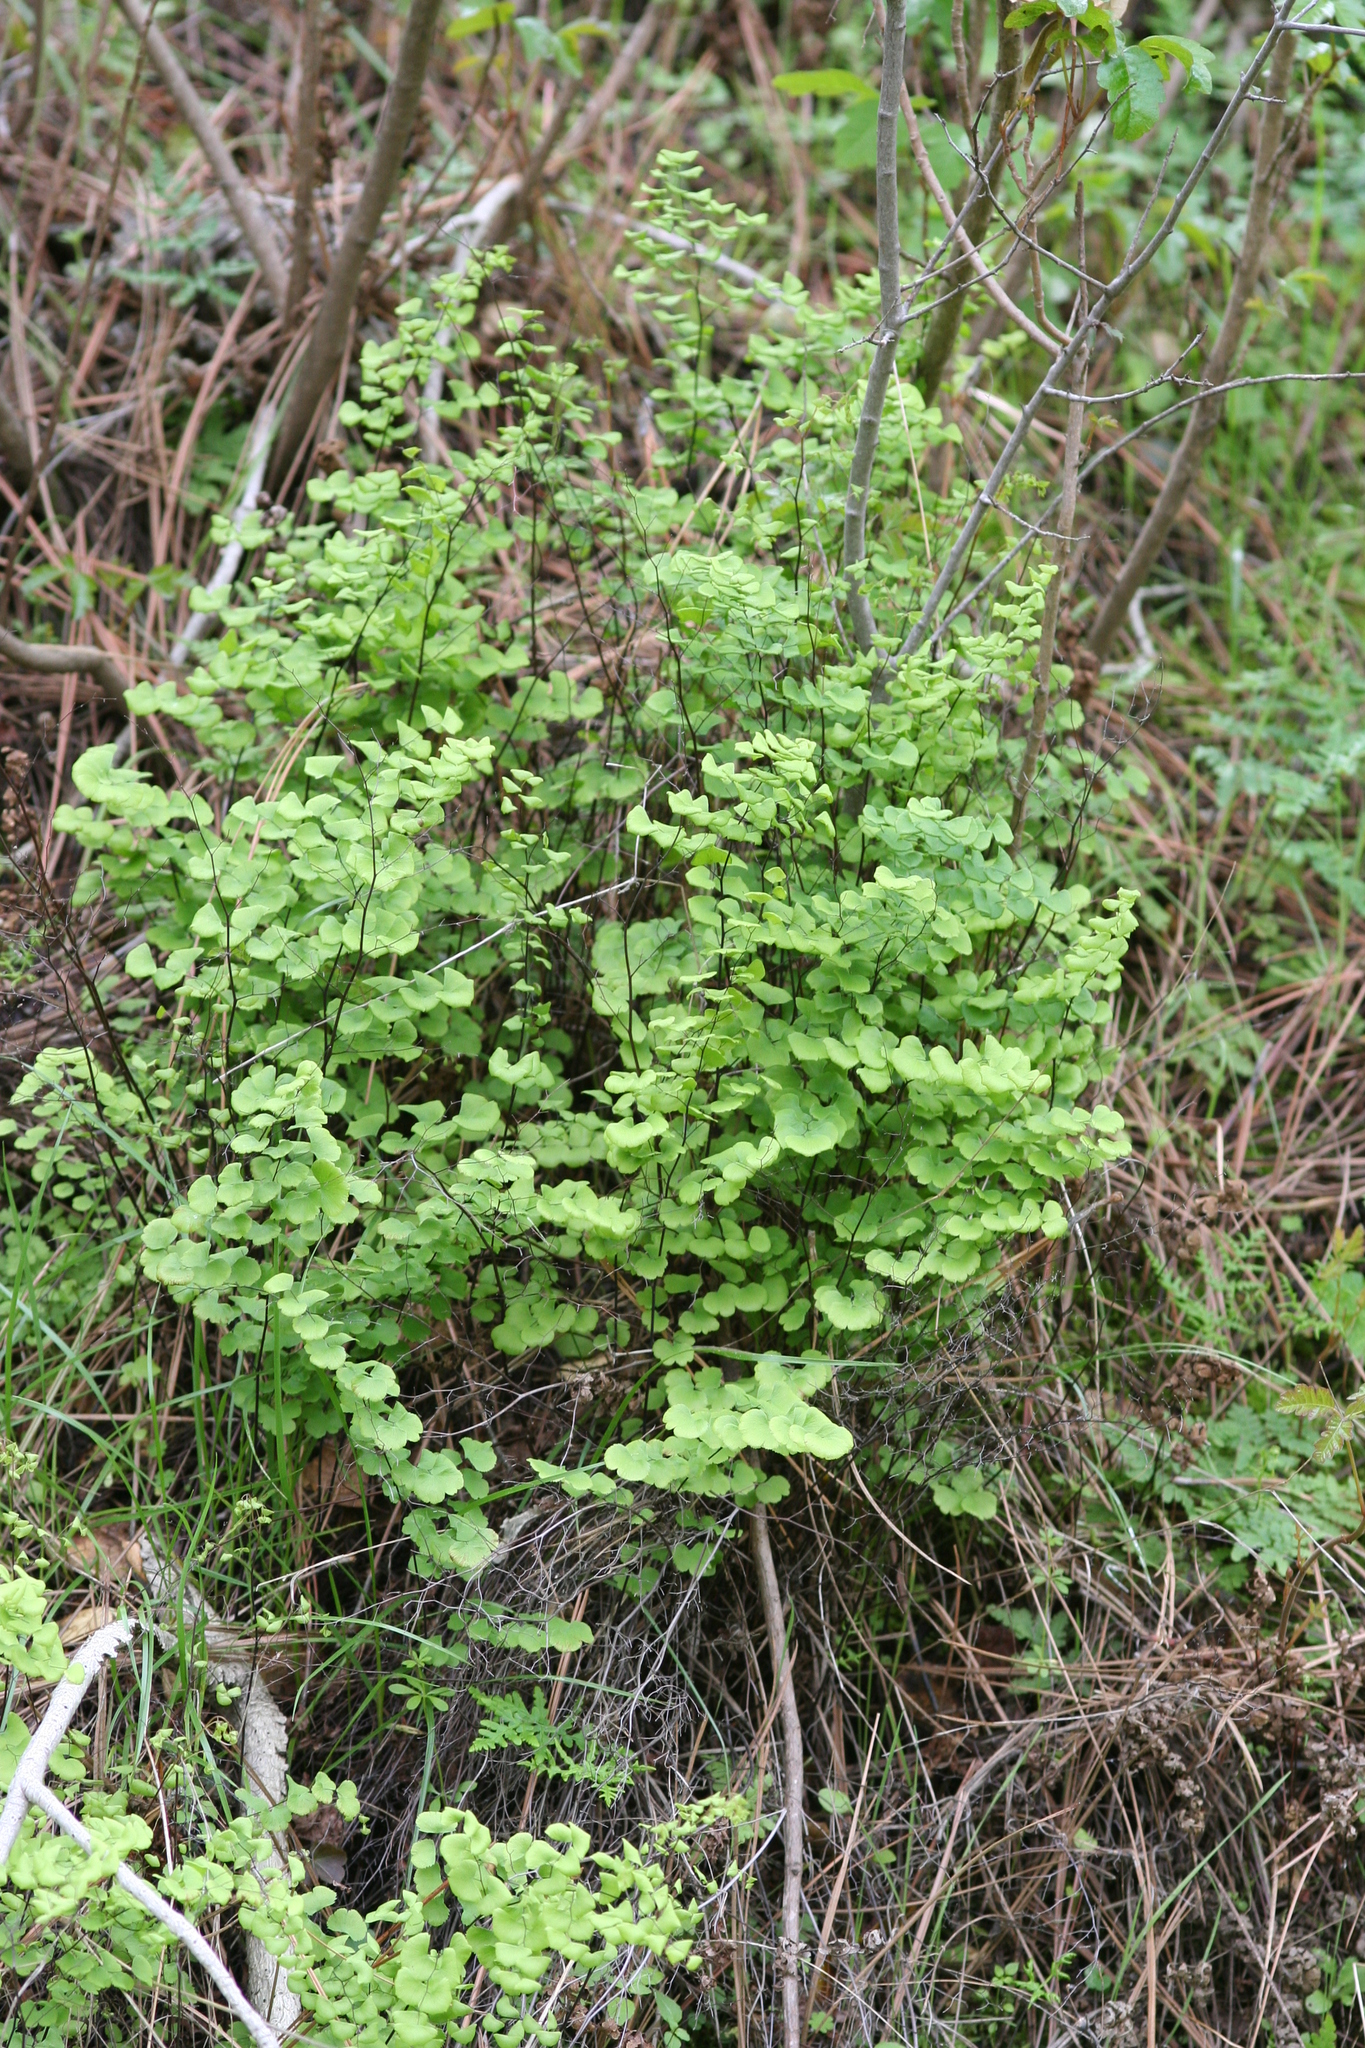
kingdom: Plantae
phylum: Tracheophyta
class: Polypodiopsida
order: Polypodiales
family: Pteridaceae
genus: Adiantum
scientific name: Adiantum jordanii
